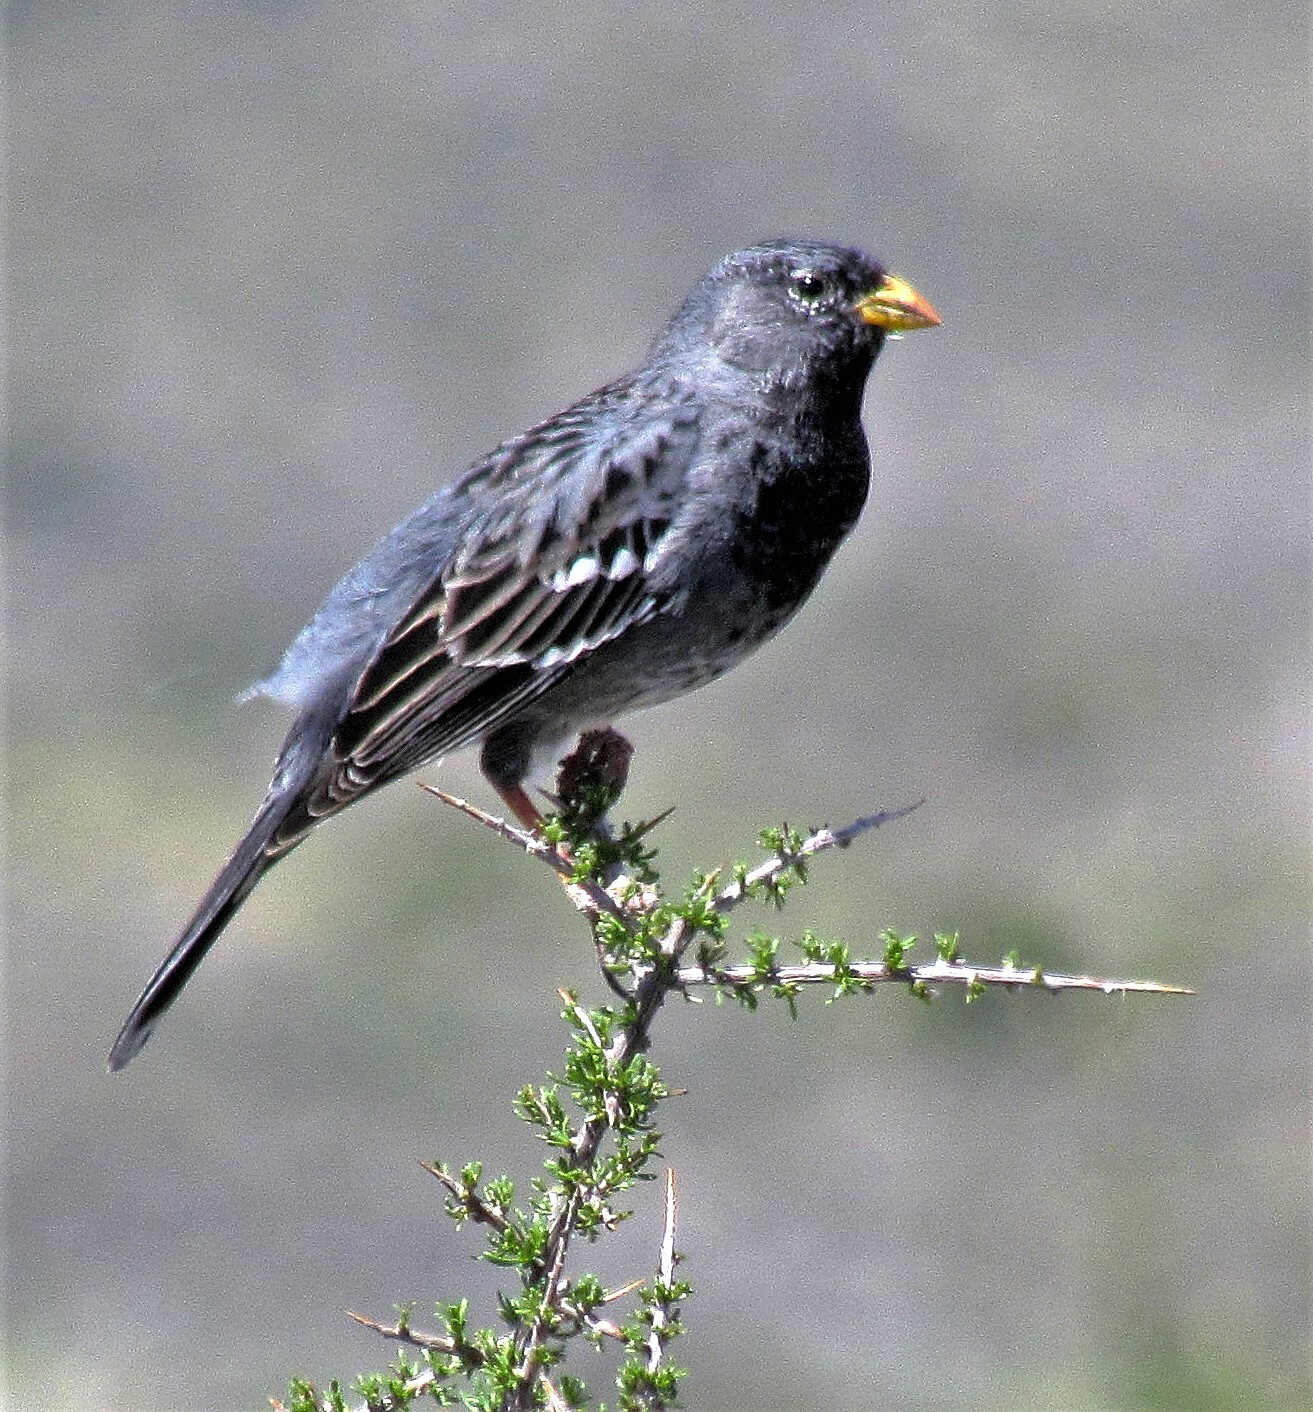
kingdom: Animalia
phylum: Chordata
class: Aves
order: Passeriformes
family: Thraupidae
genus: Rhopospina
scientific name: Rhopospina fruticeti
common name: Mourning sierra finch
